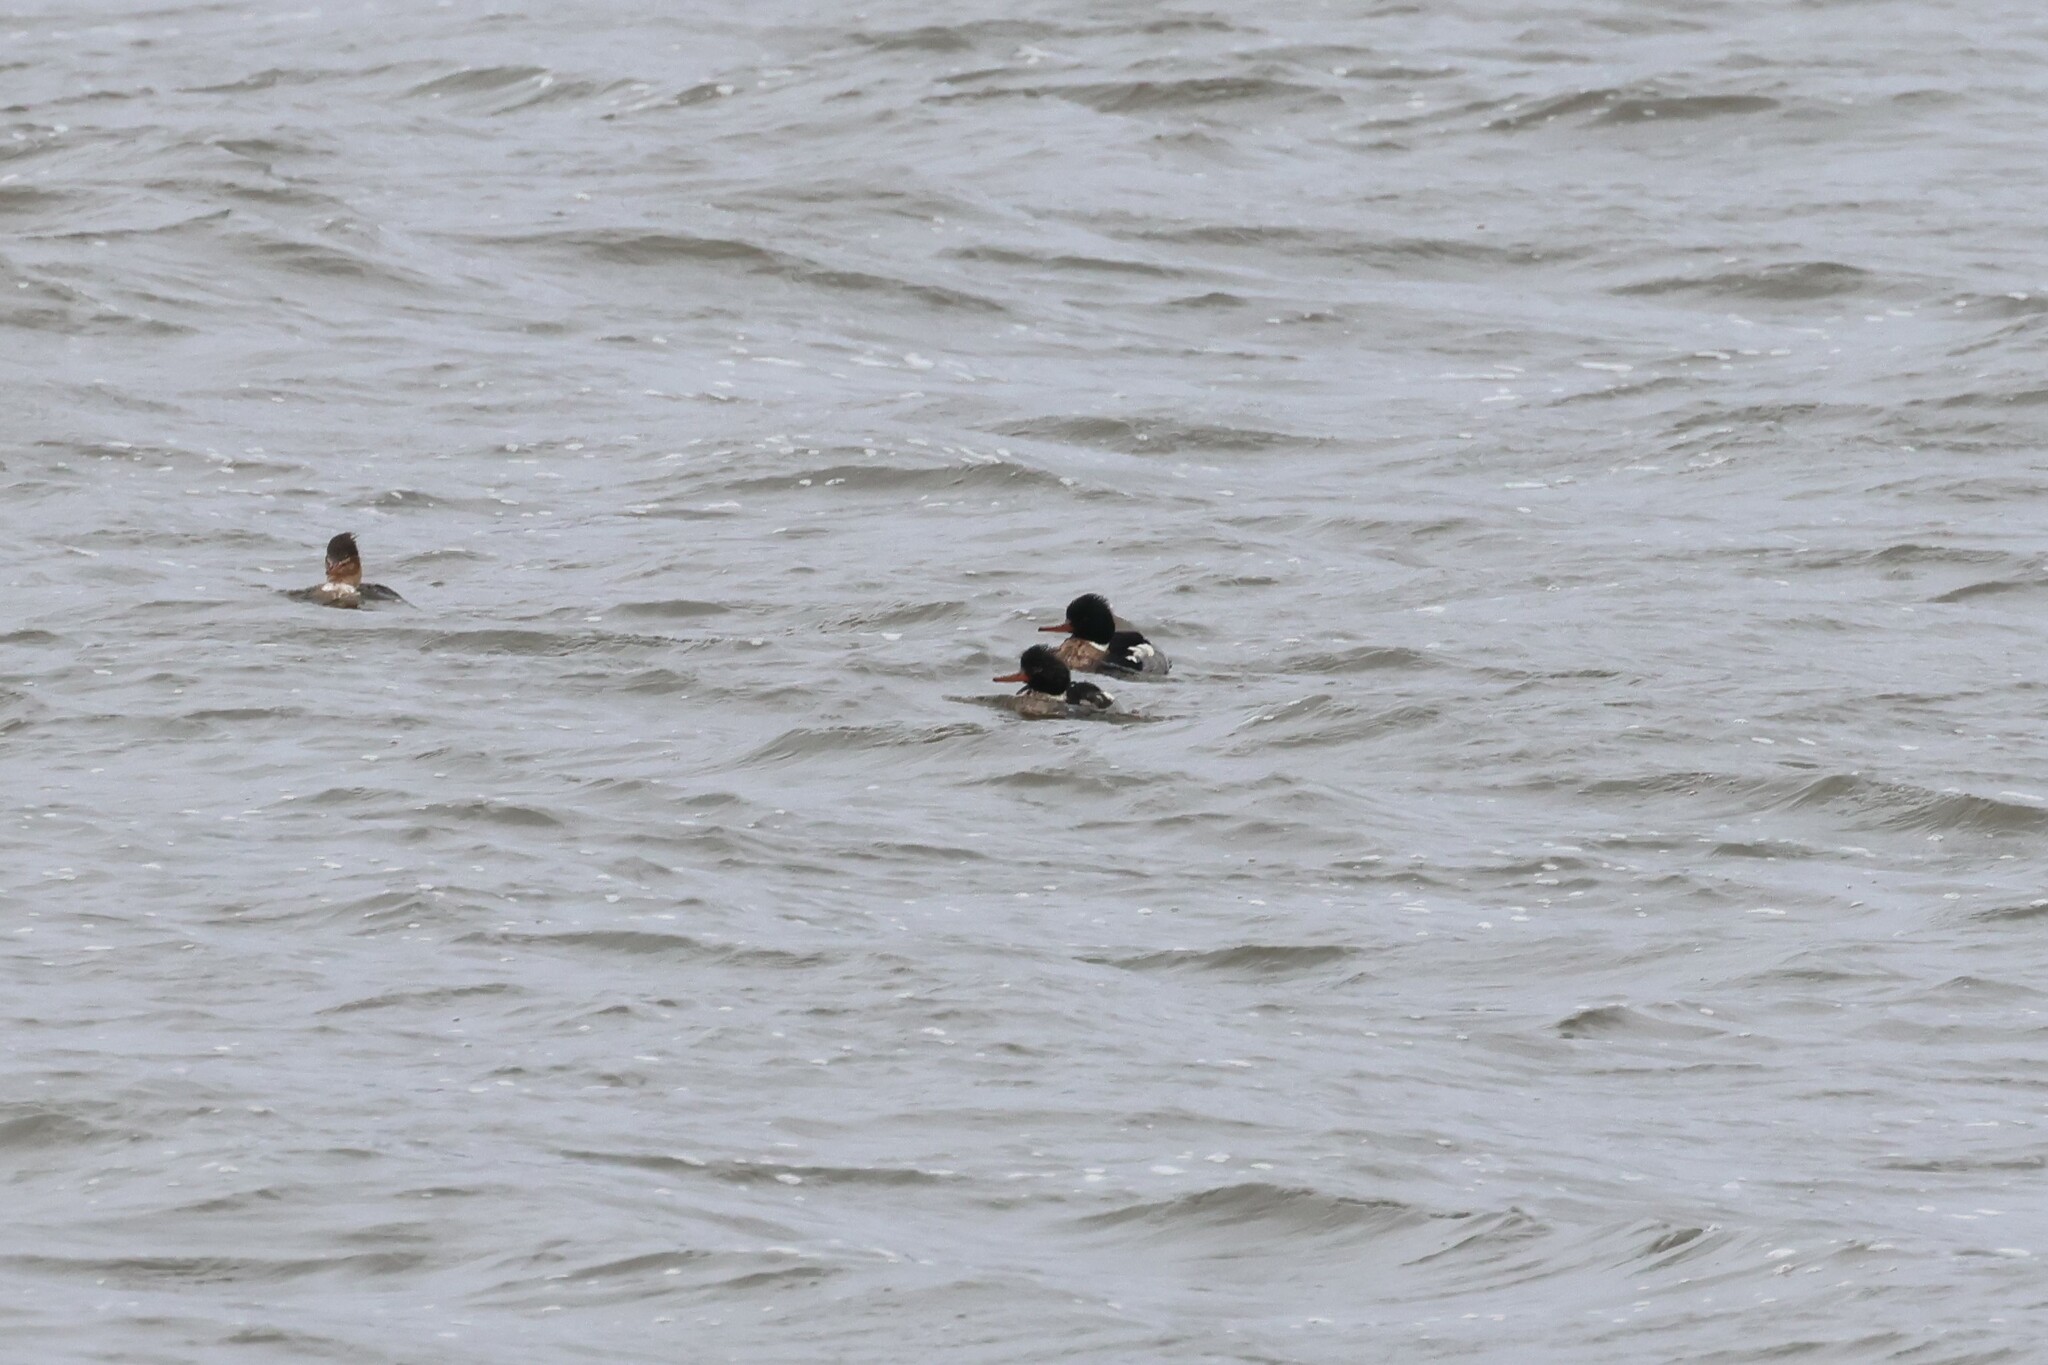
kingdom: Animalia
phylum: Chordata
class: Aves
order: Anseriformes
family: Anatidae
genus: Mergus
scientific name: Mergus serrator
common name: Red-breasted merganser
